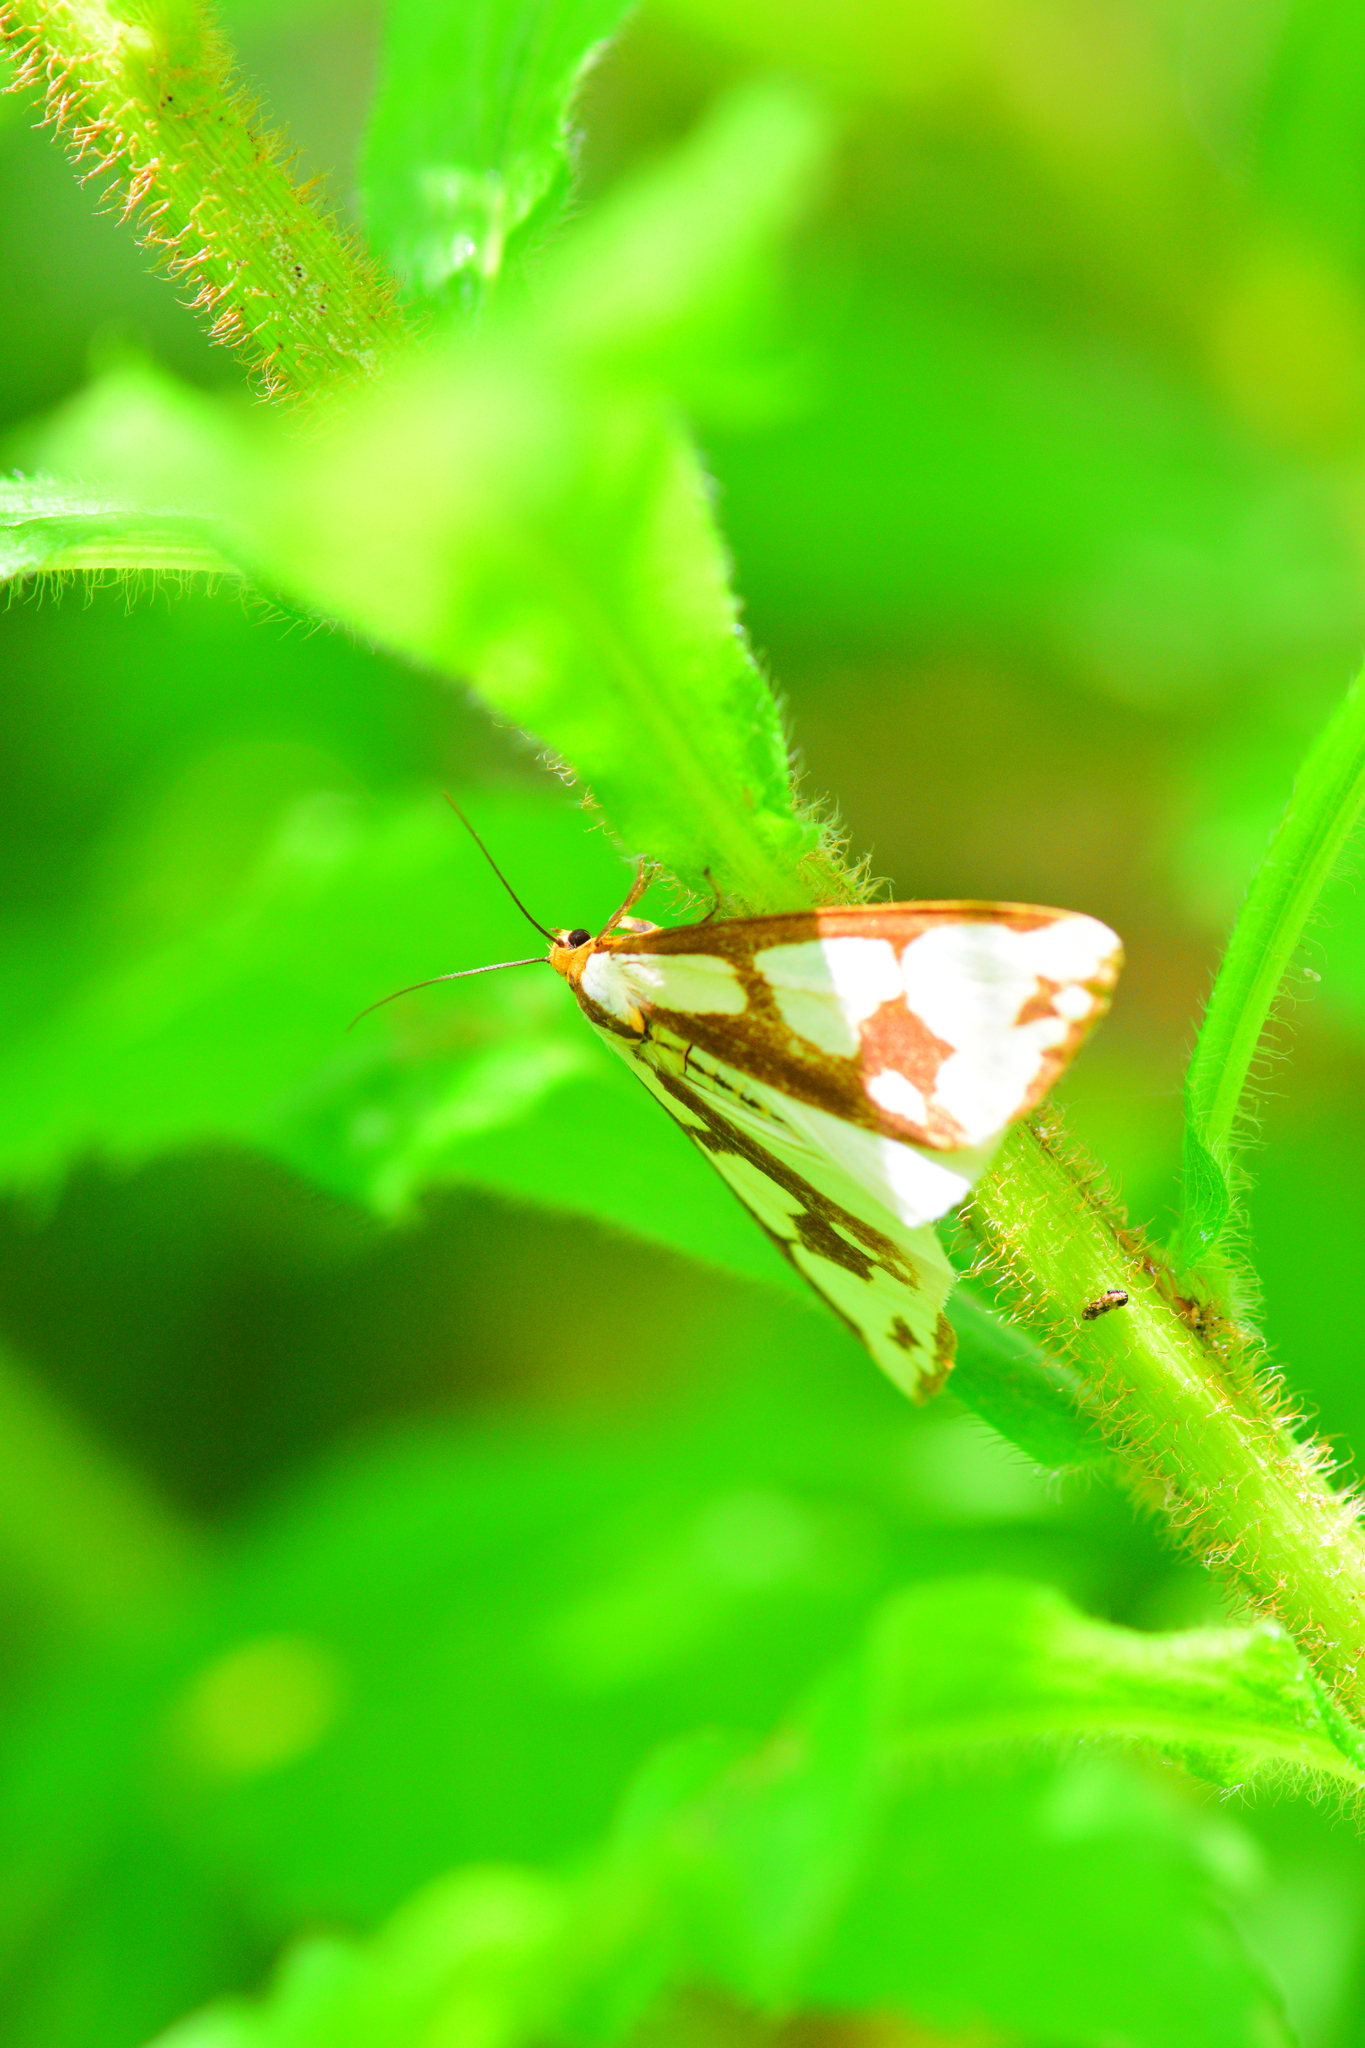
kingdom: Animalia
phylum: Arthropoda
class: Insecta
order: Lepidoptera
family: Erebidae
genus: Haploa
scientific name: Haploa confusa
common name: Confused haploa moth
